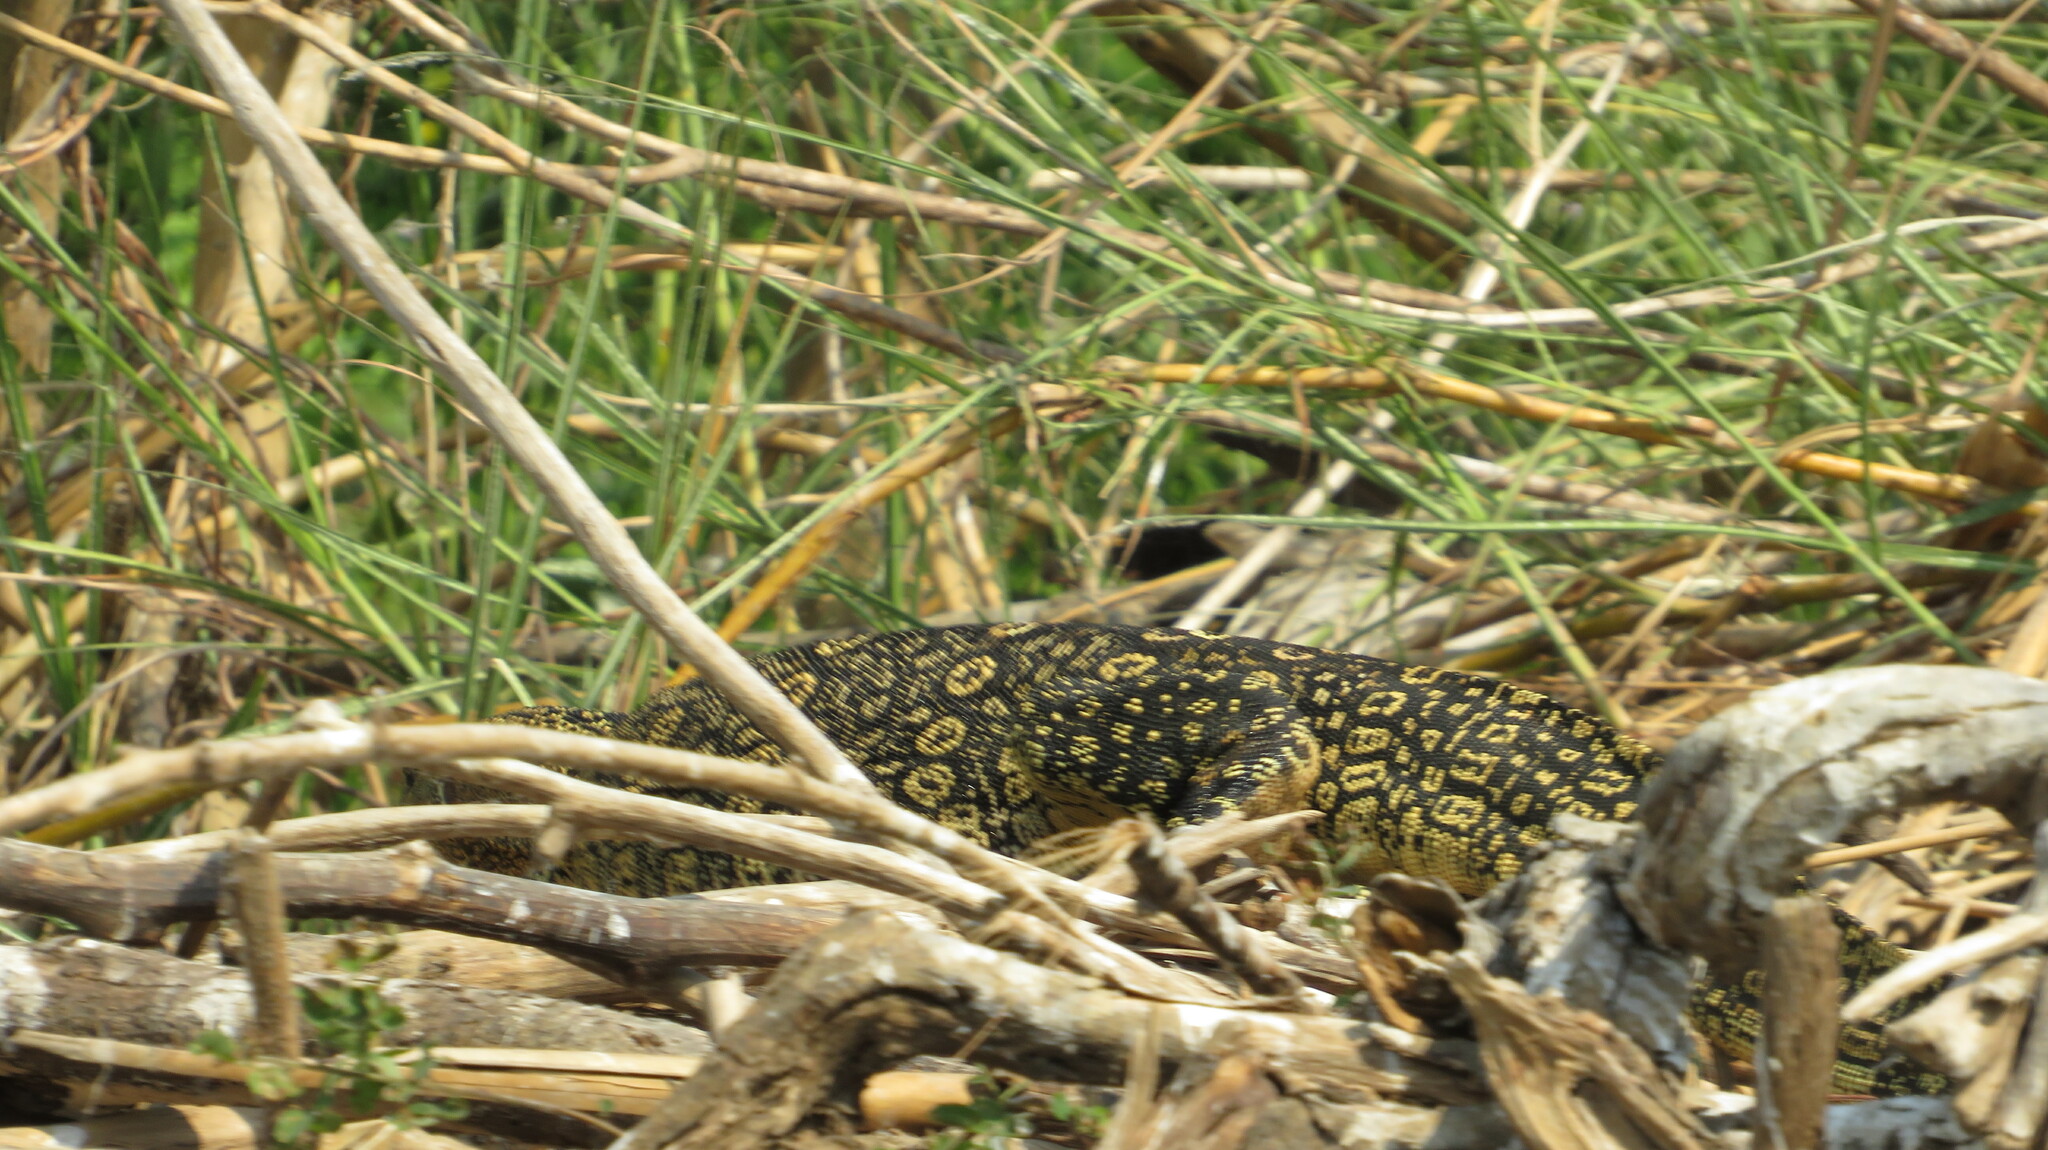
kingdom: Animalia
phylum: Chordata
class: Squamata
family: Varanidae
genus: Varanus
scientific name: Varanus salvator
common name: Common water monitor
